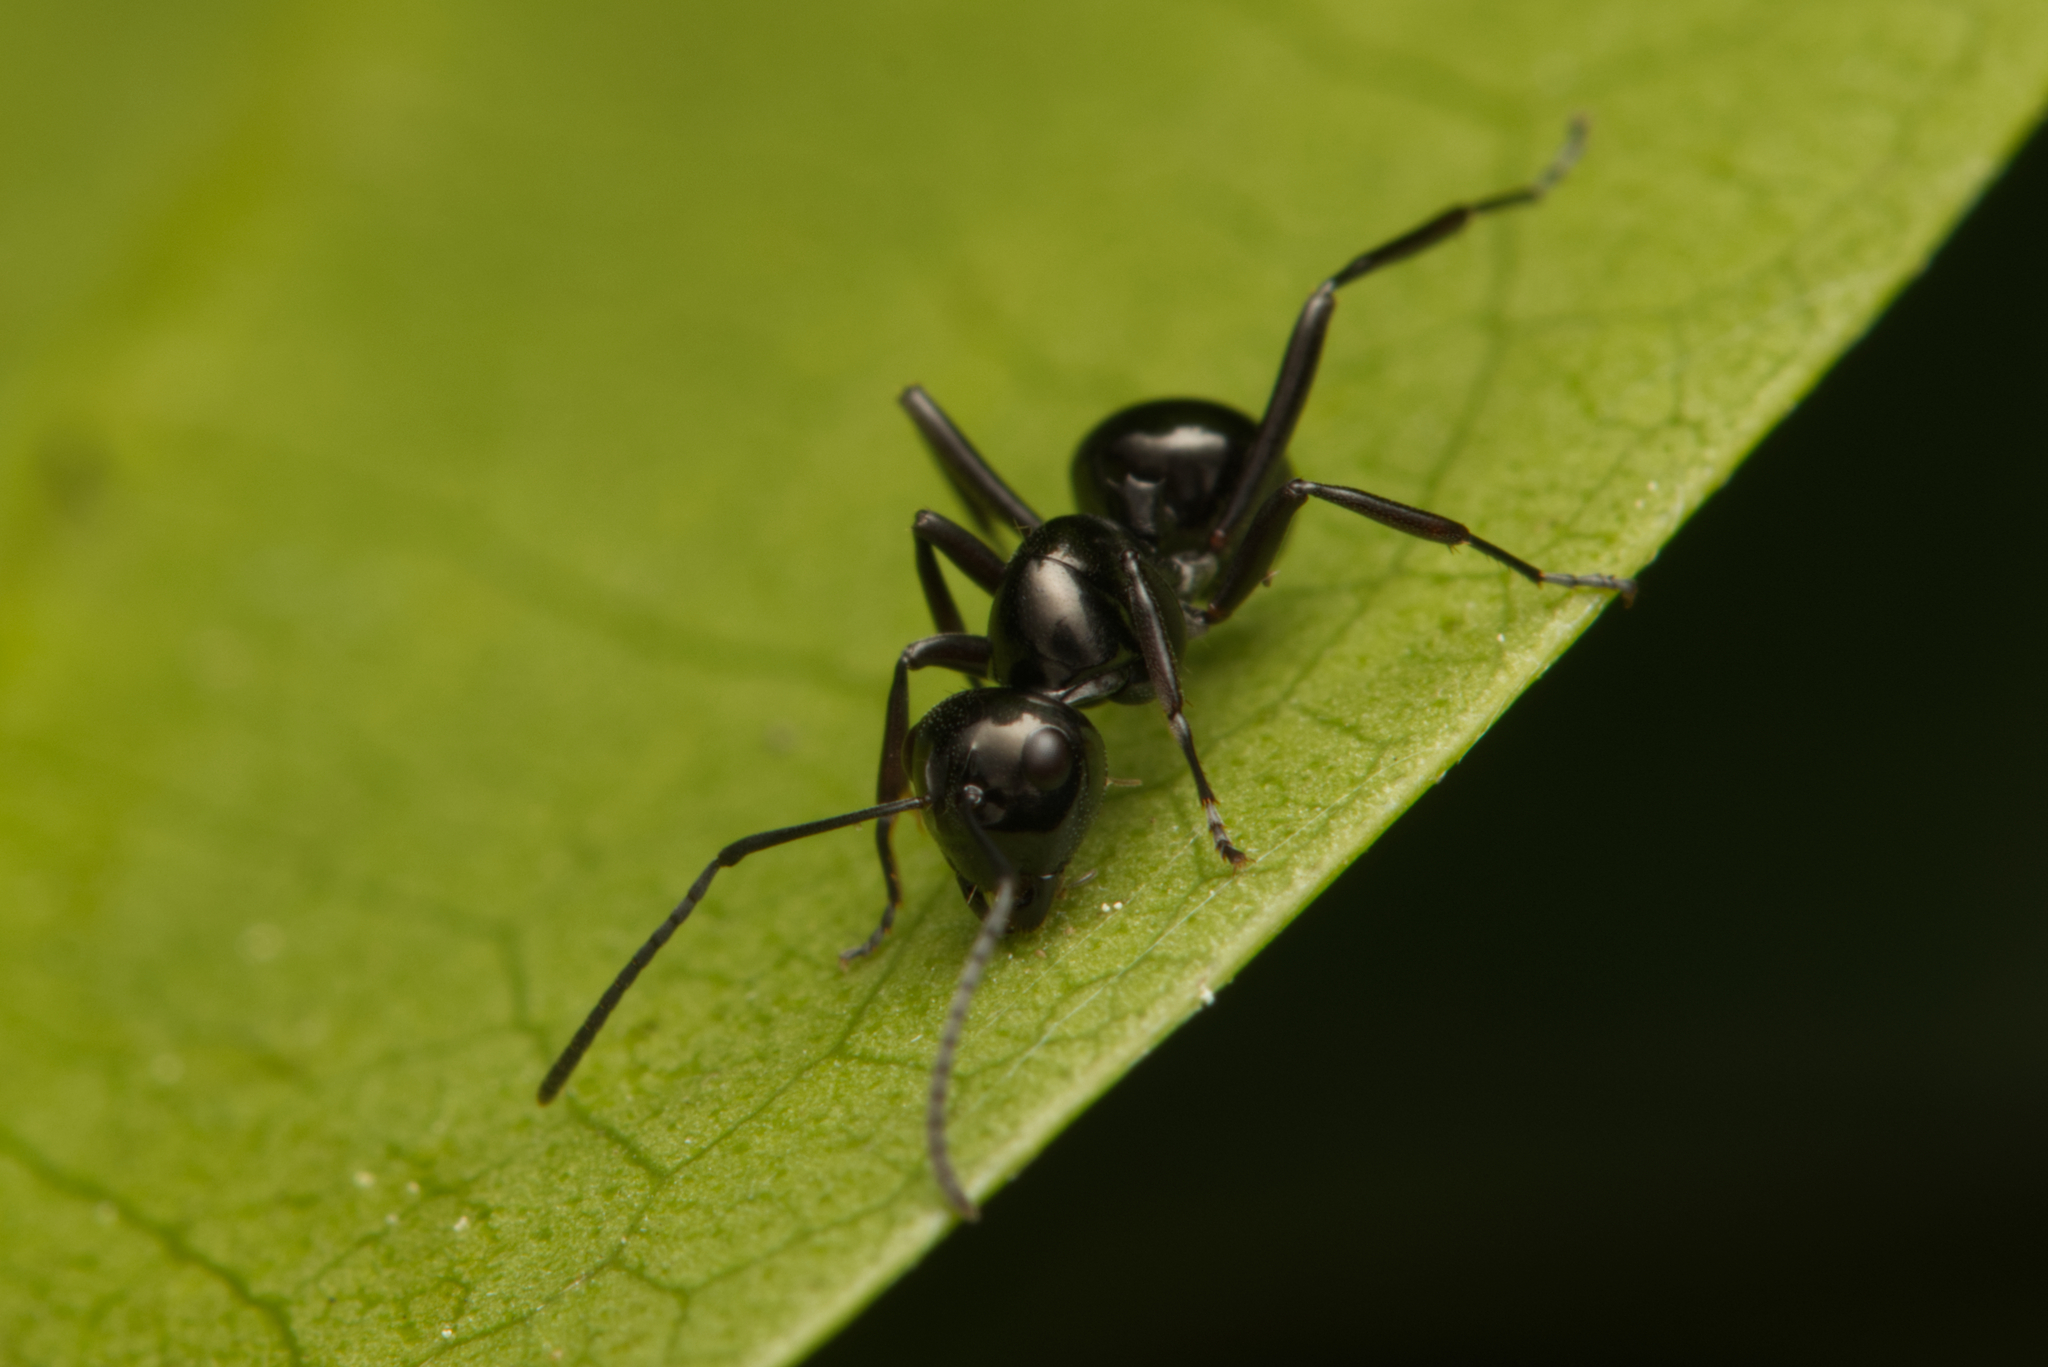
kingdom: Animalia
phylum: Arthropoda
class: Insecta
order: Hymenoptera
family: Formicidae
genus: Polyrhachis
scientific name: Polyrhachis mackayi
